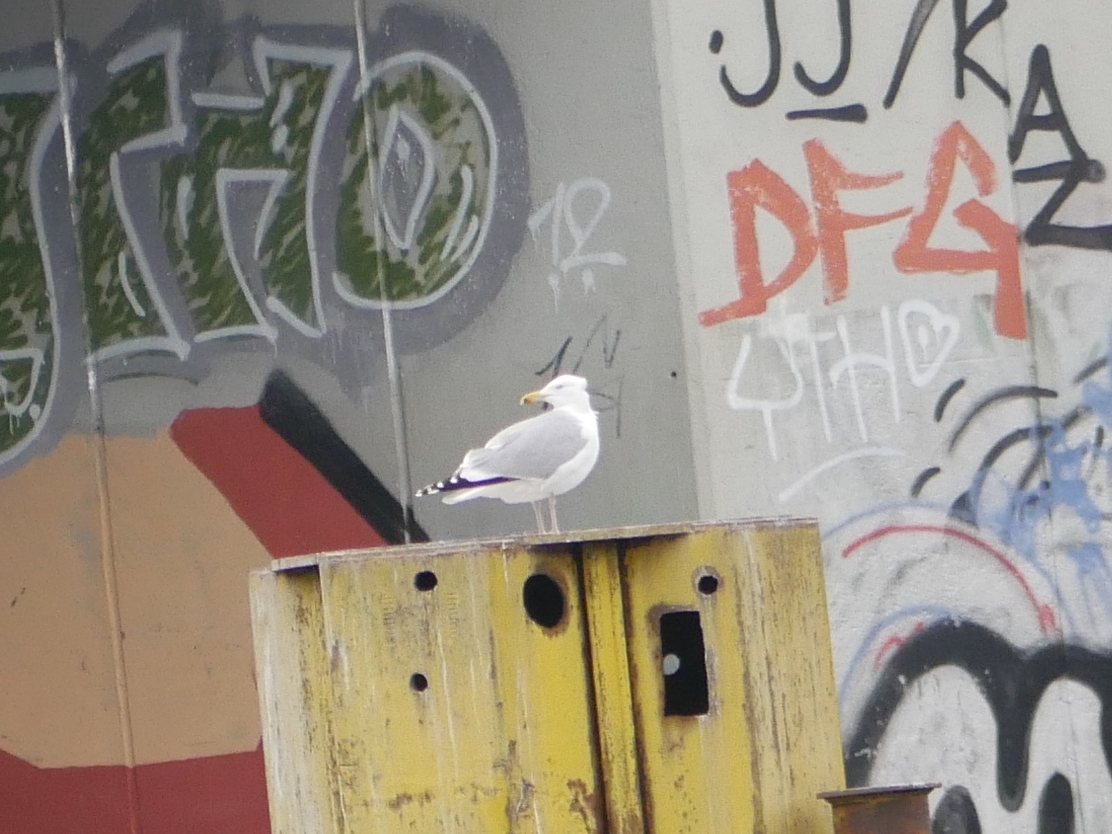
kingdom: Animalia
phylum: Chordata
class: Aves
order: Charadriiformes
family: Laridae
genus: Larus
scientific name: Larus argentatus
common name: Herring gull
